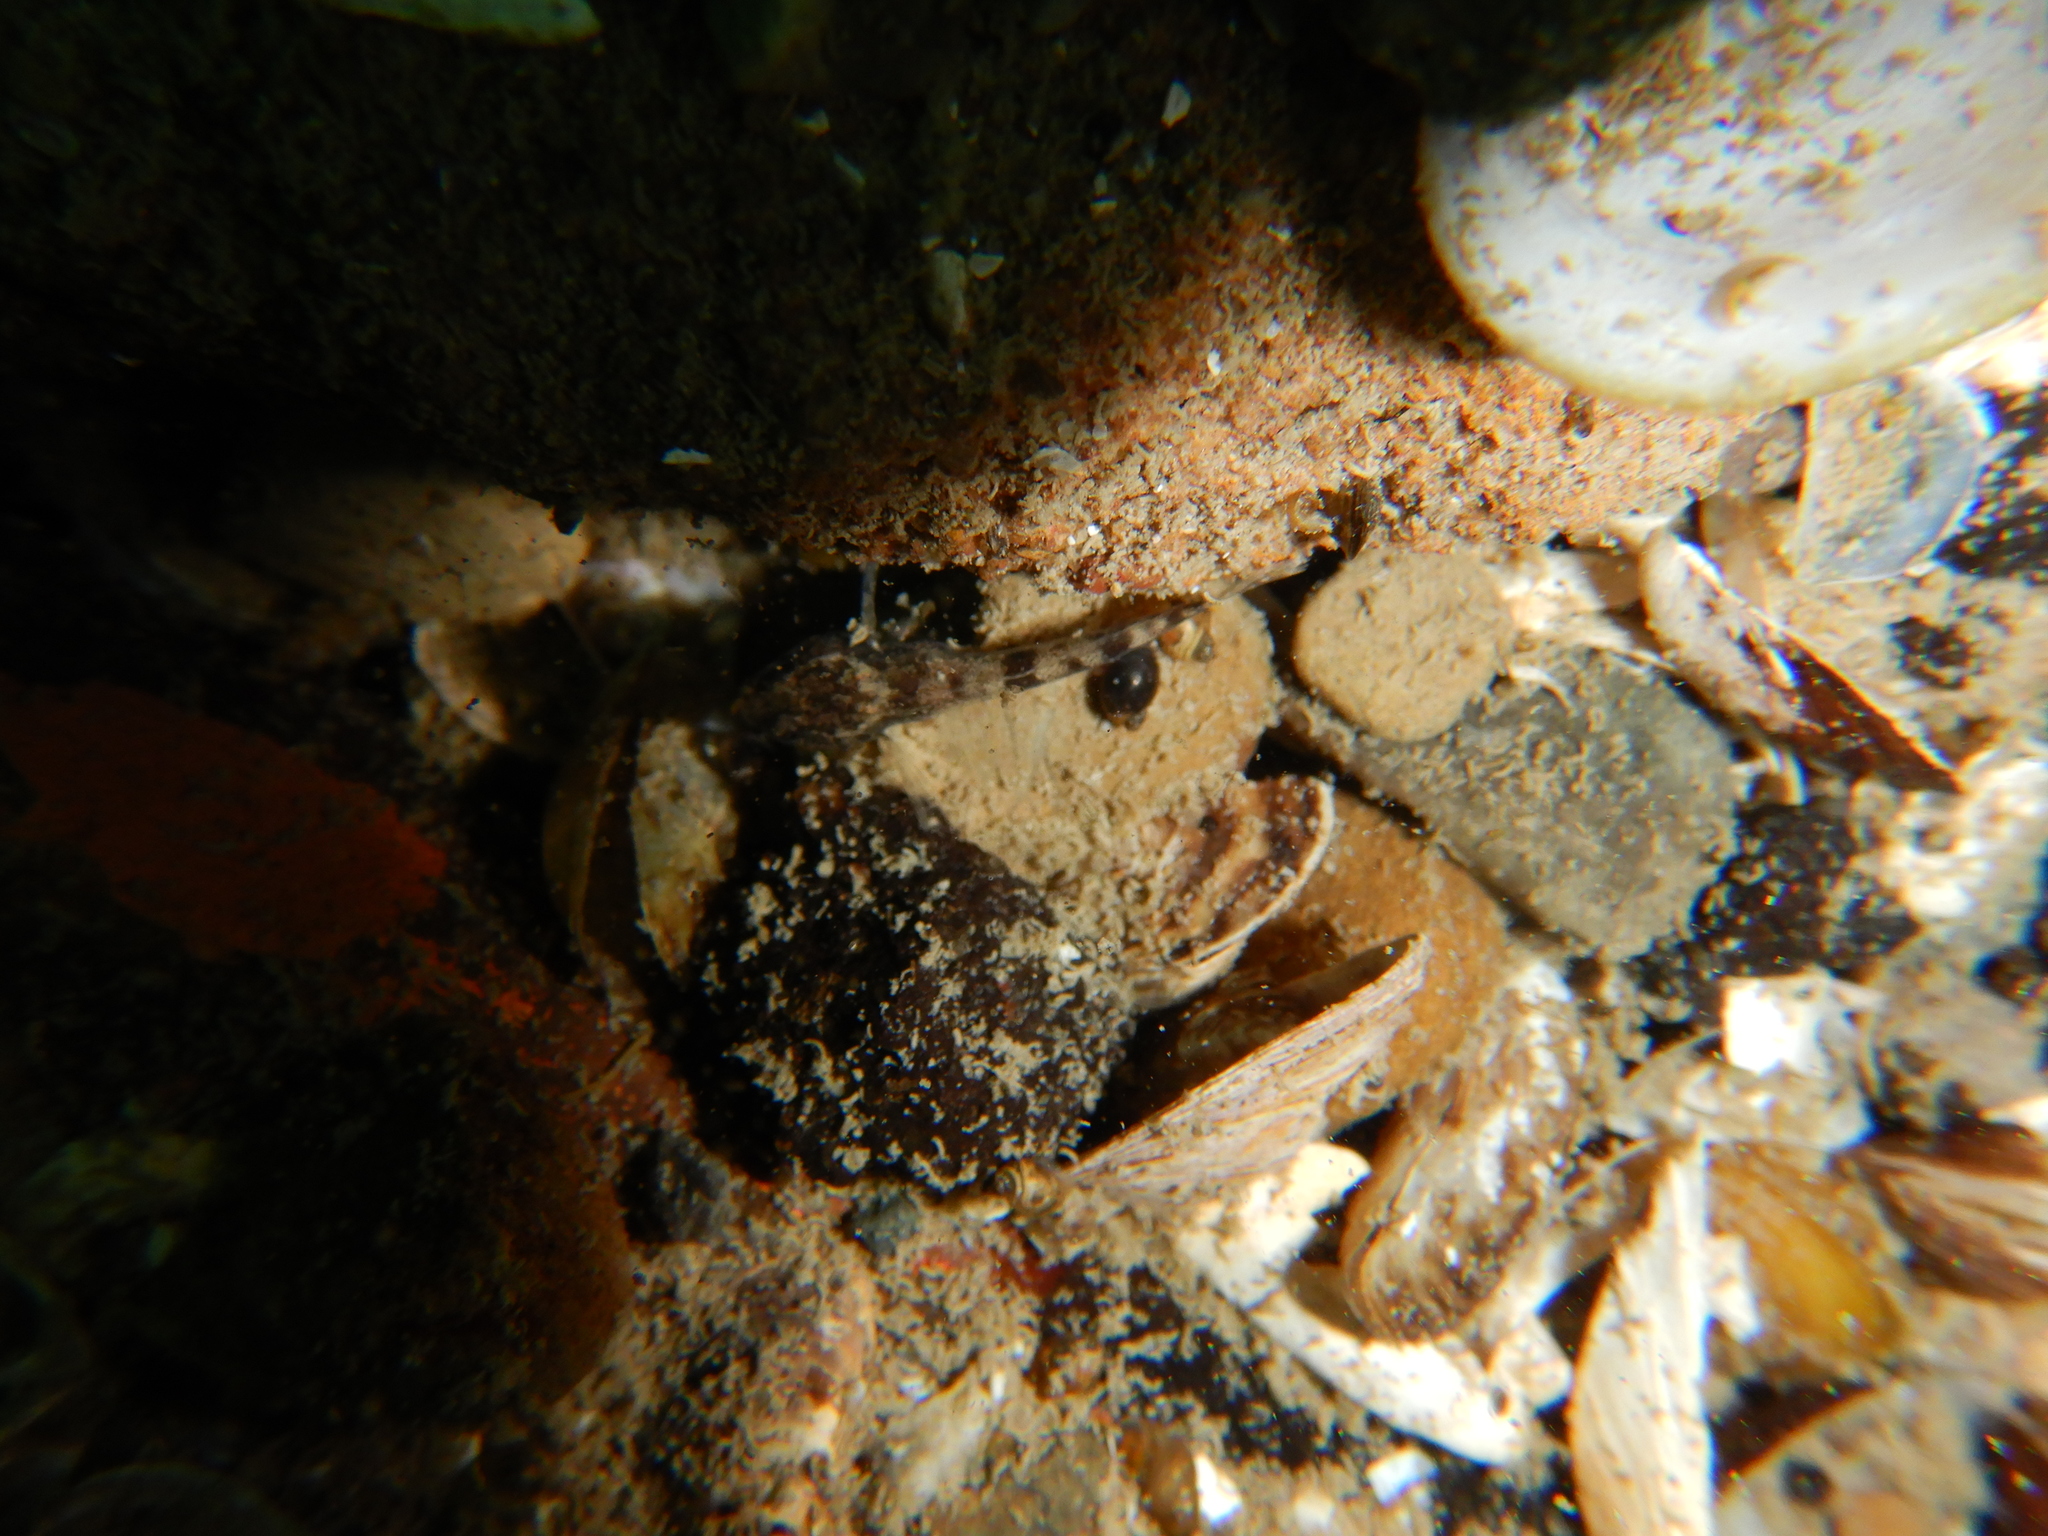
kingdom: Animalia
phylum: Chordata
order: Scorpaeniformes
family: Cottidae
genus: Cottus
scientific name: Cottus gobio
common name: Bullhead
